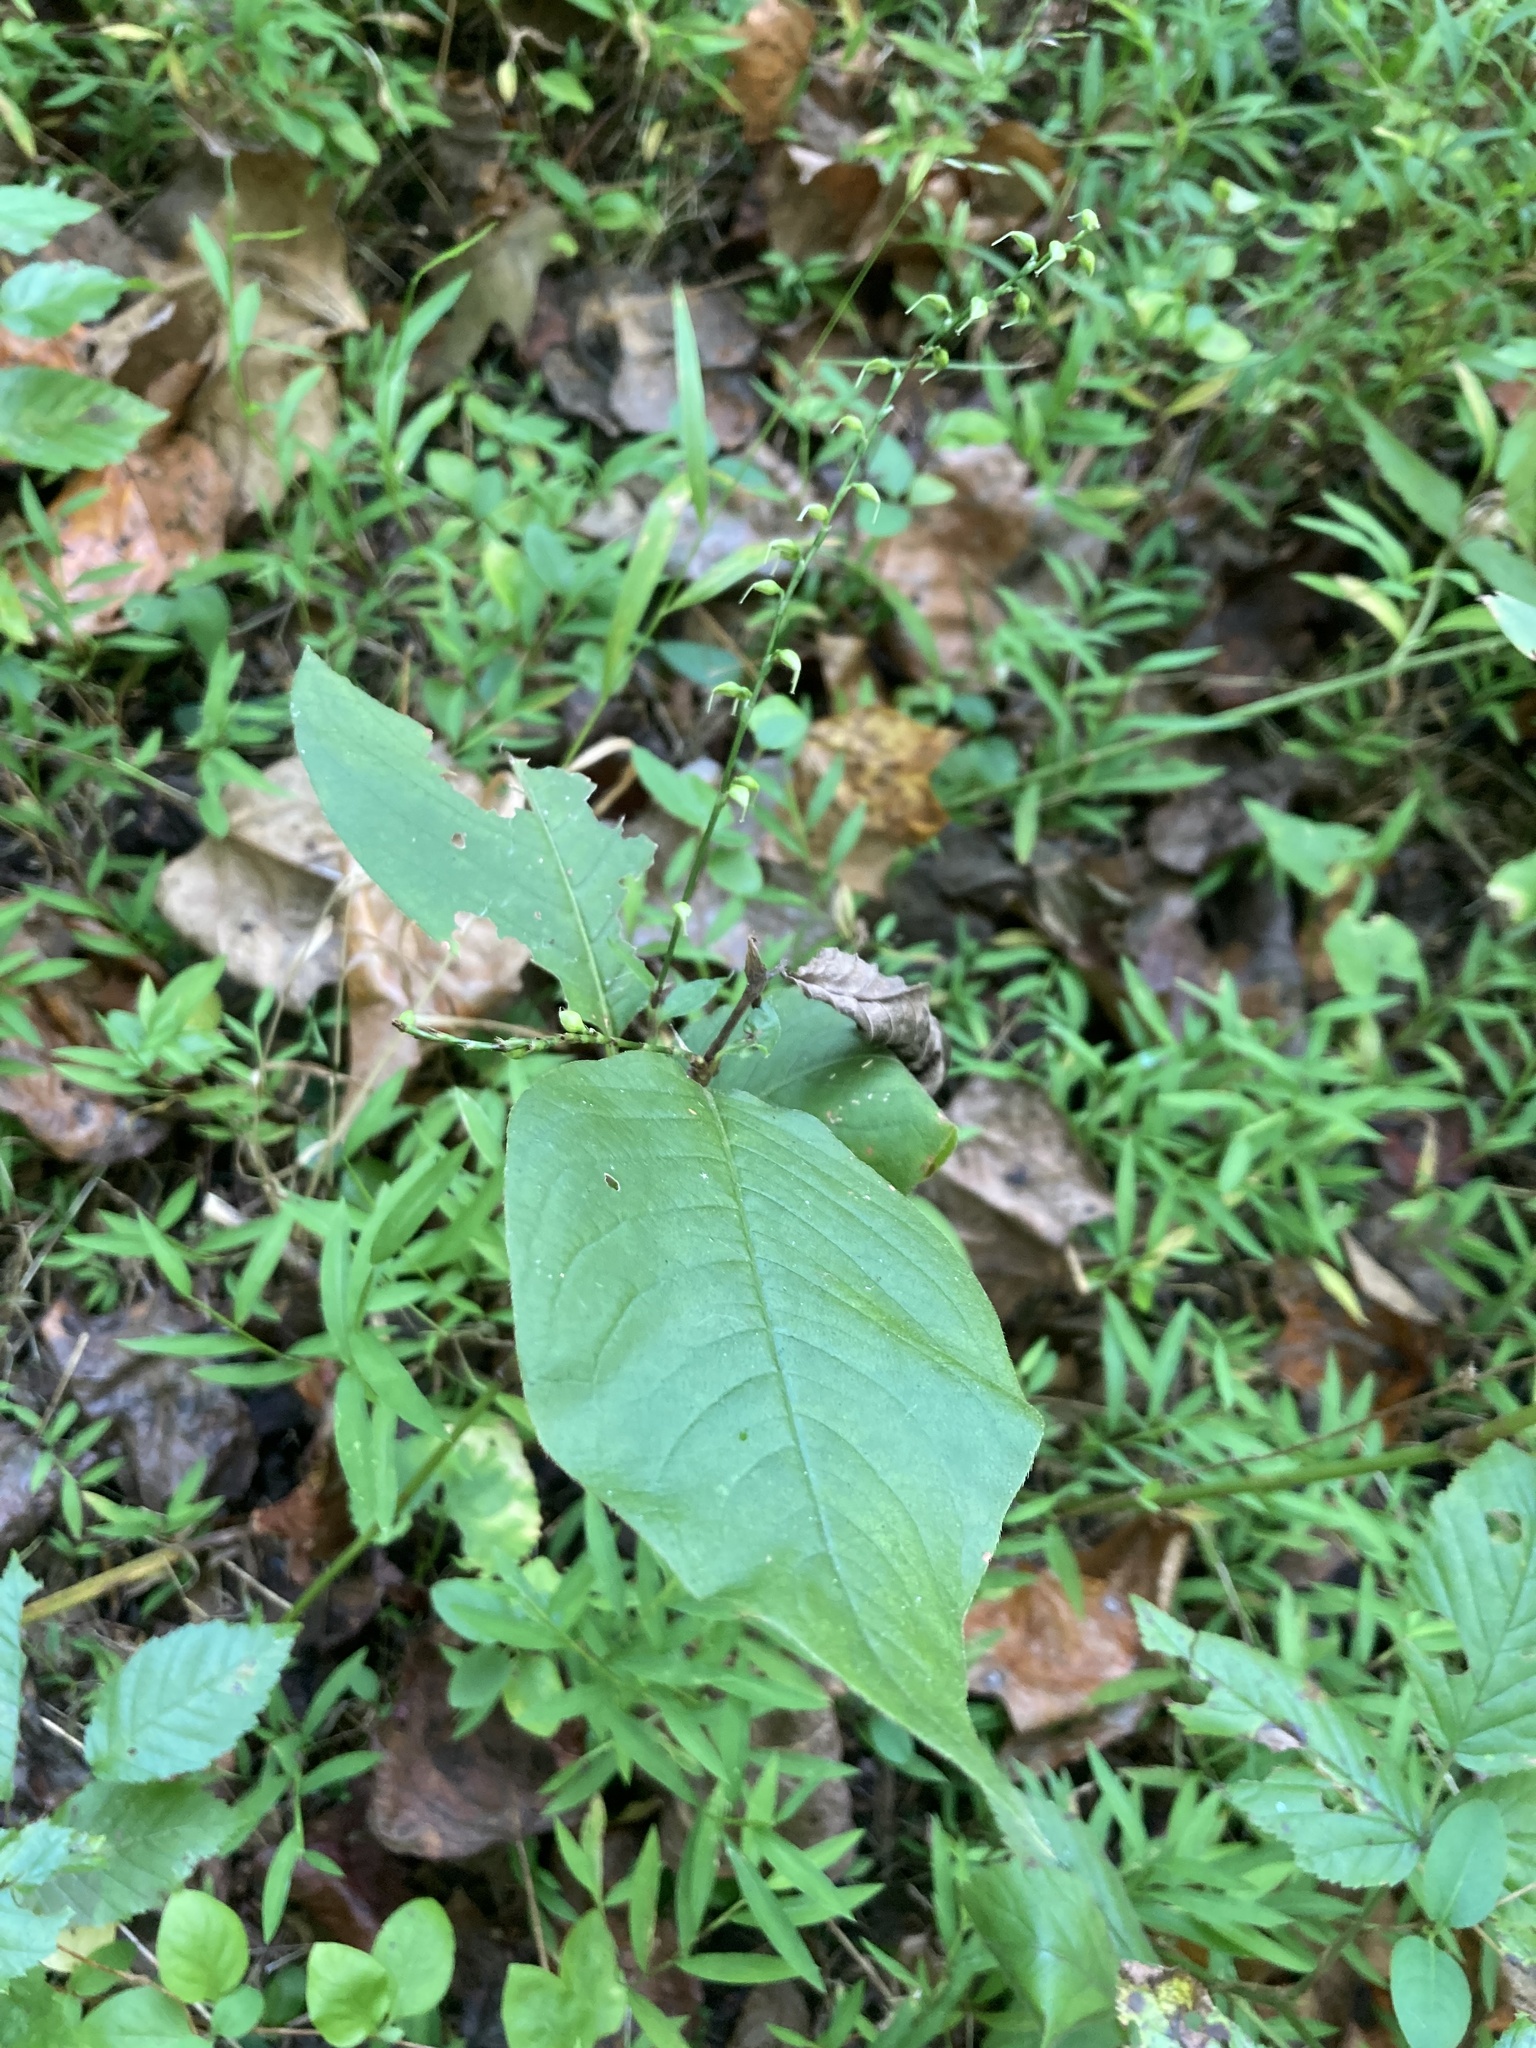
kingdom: Plantae
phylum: Tracheophyta
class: Magnoliopsida
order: Caryophyllales
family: Polygonaceae
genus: Persicaria
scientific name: Persicaria virginiana
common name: Jumpseed
